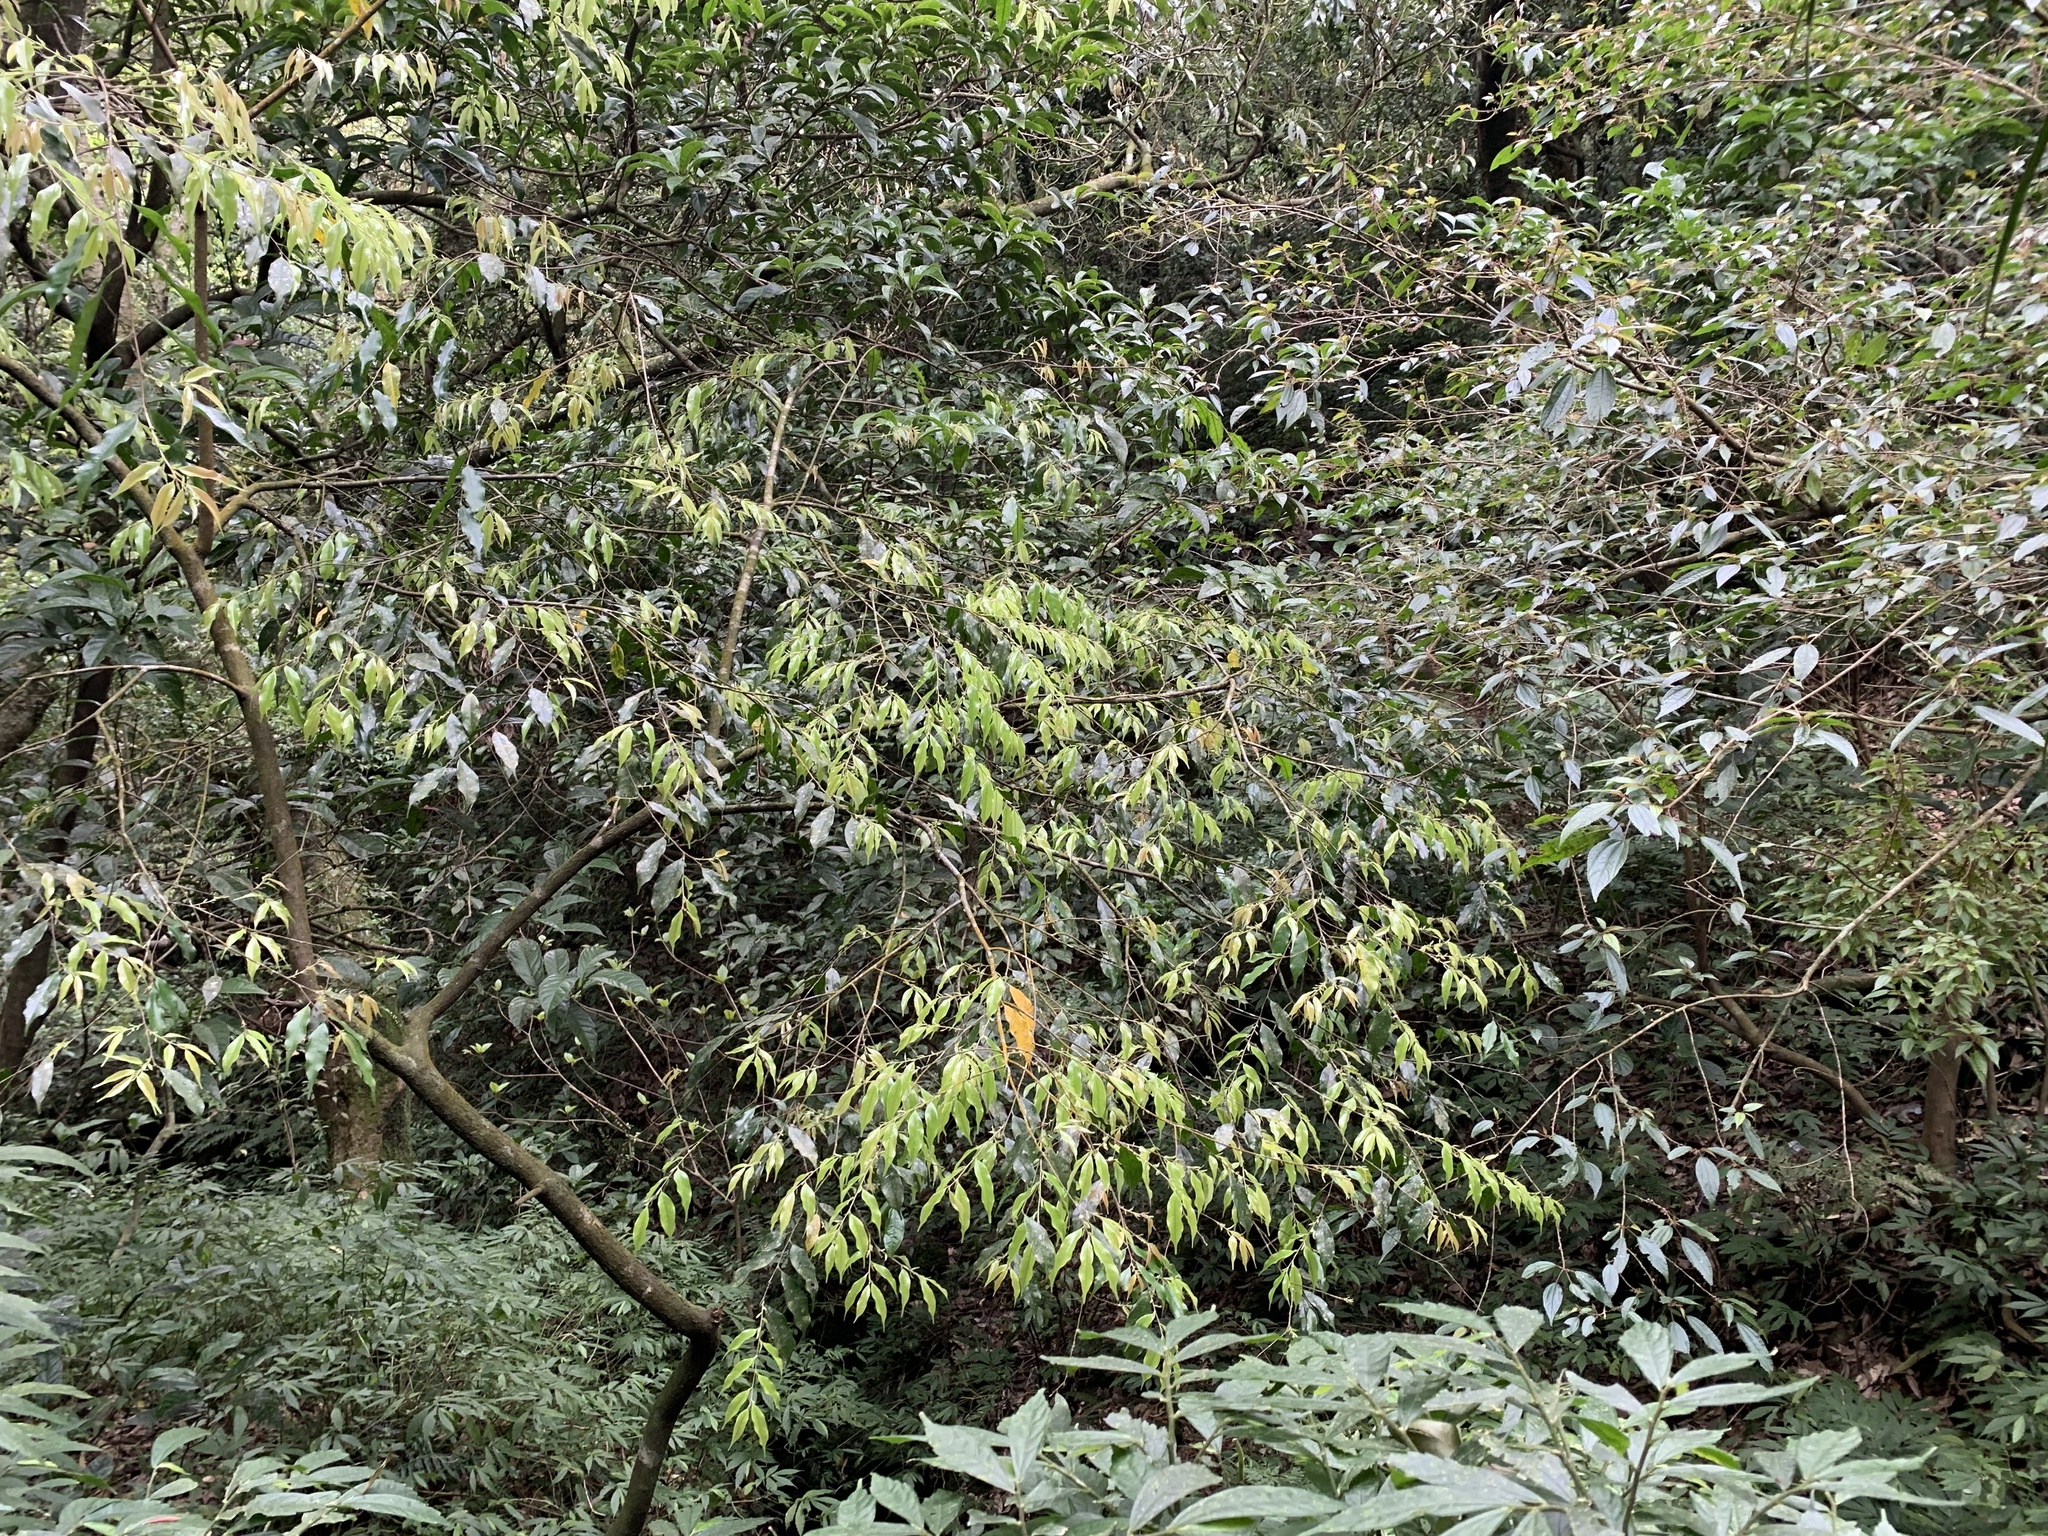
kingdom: Plantae
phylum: Tracheophyta
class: Magnoliopsida
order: Rosales
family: Rosaceae
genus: Prunus
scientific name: Prunus phaeosticta
